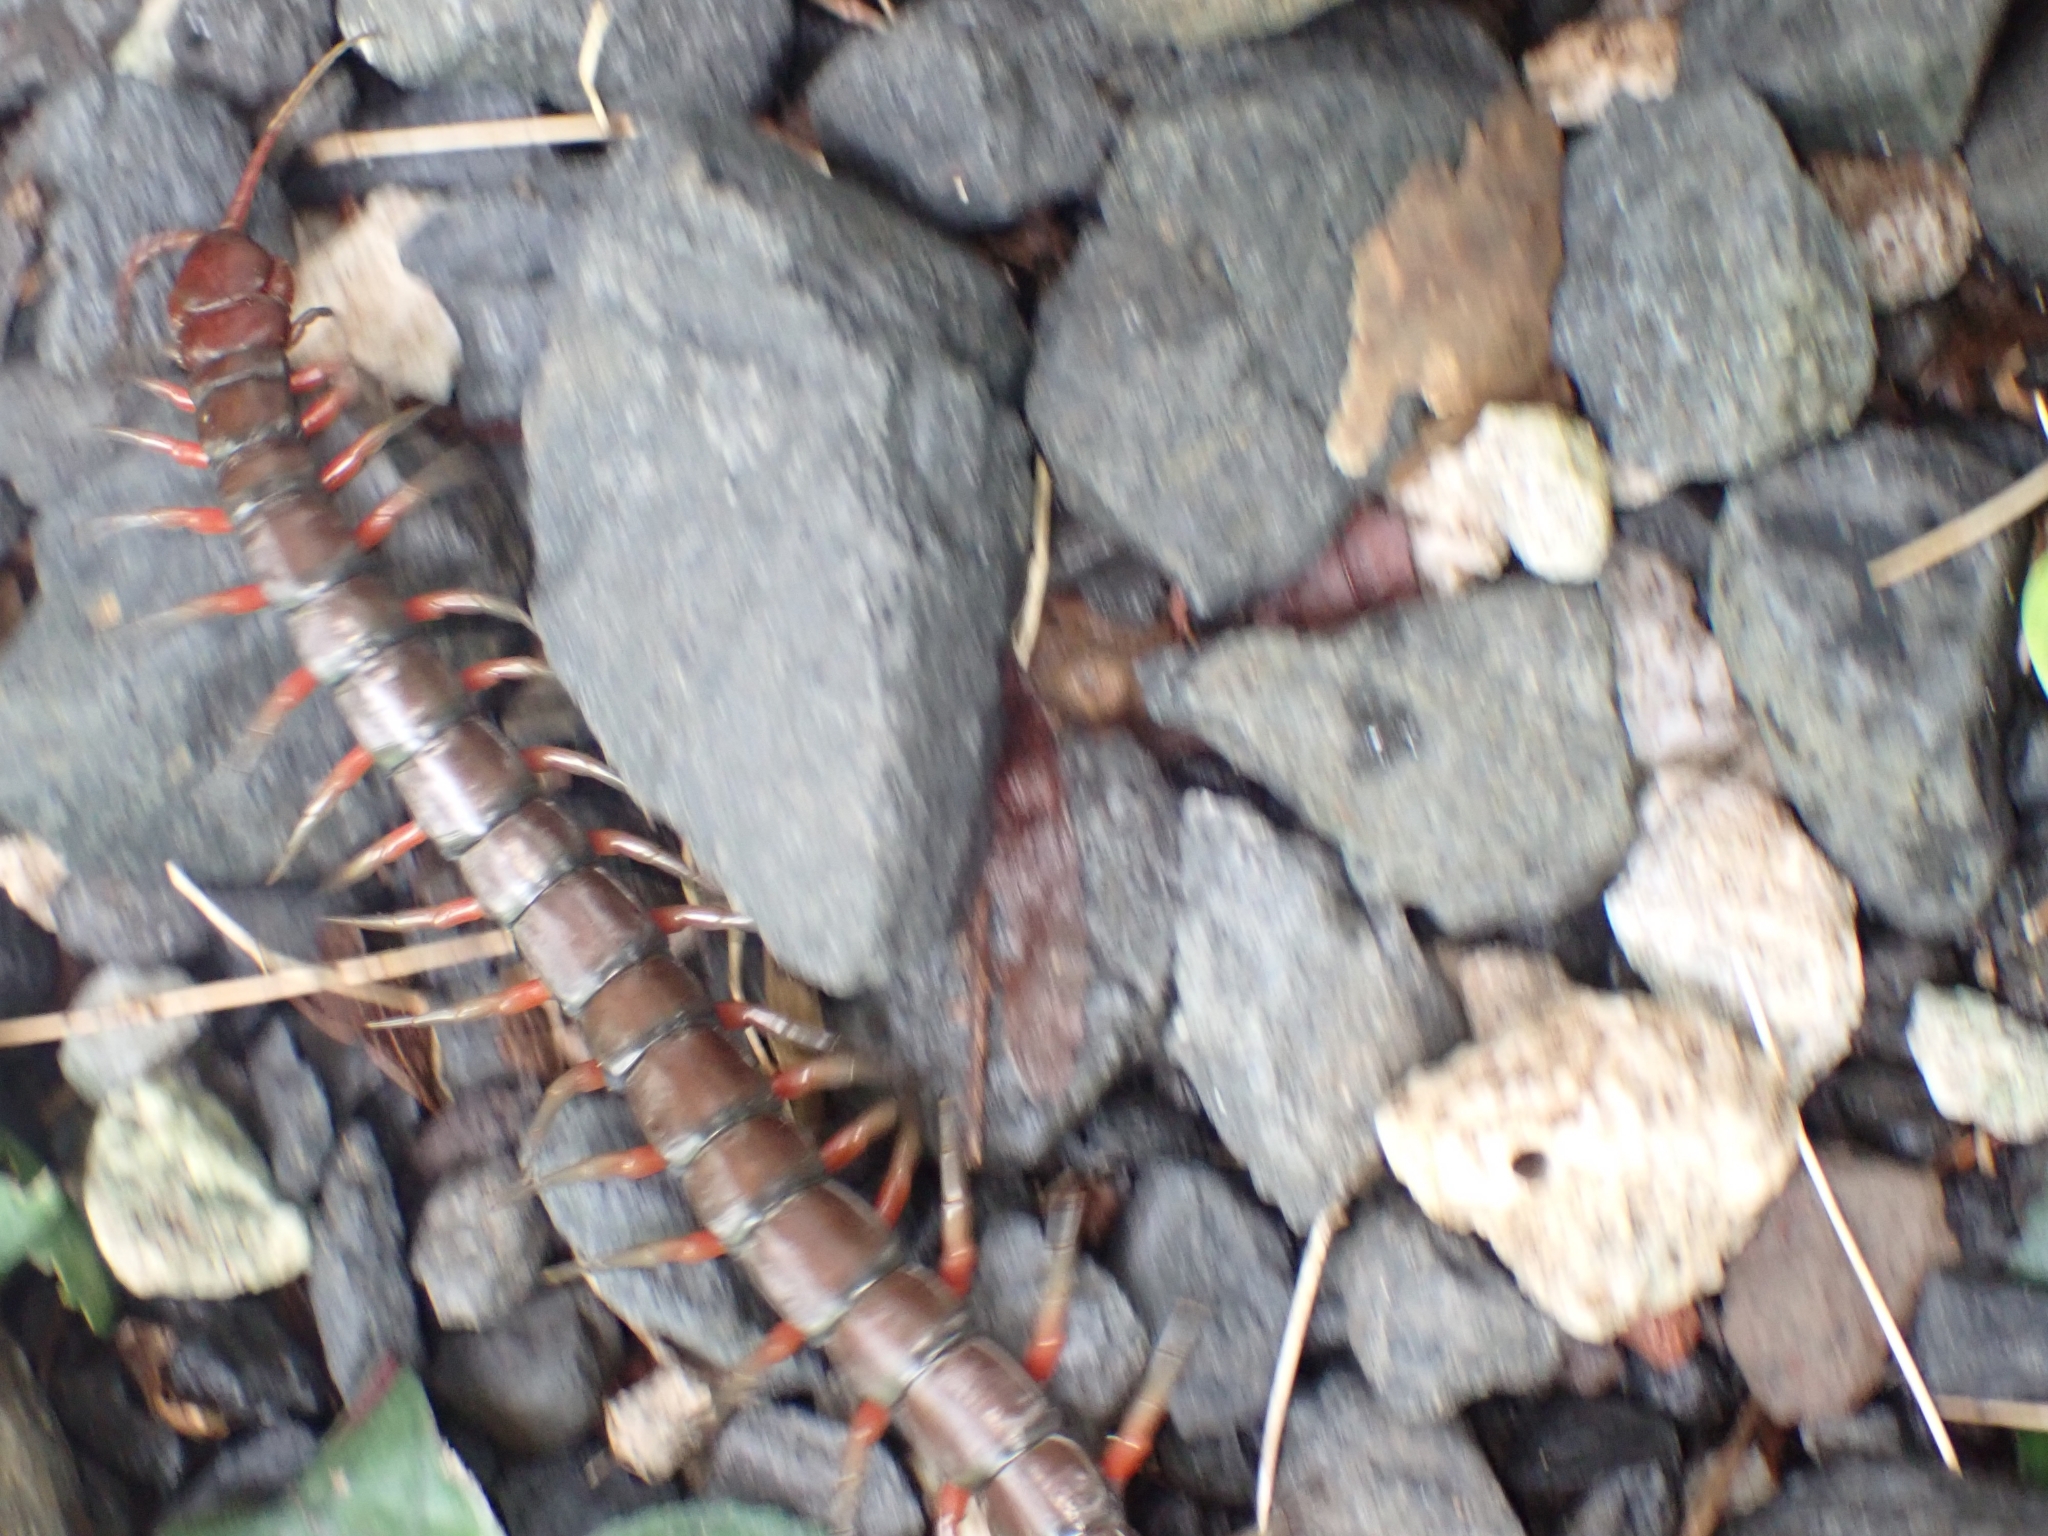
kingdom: Animalia
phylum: Arthropoda
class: Chilopoda
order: Scolopendromorpha
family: Scolopendridae
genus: Scolopendra
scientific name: Scolopendra subspinipes
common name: Centipede
